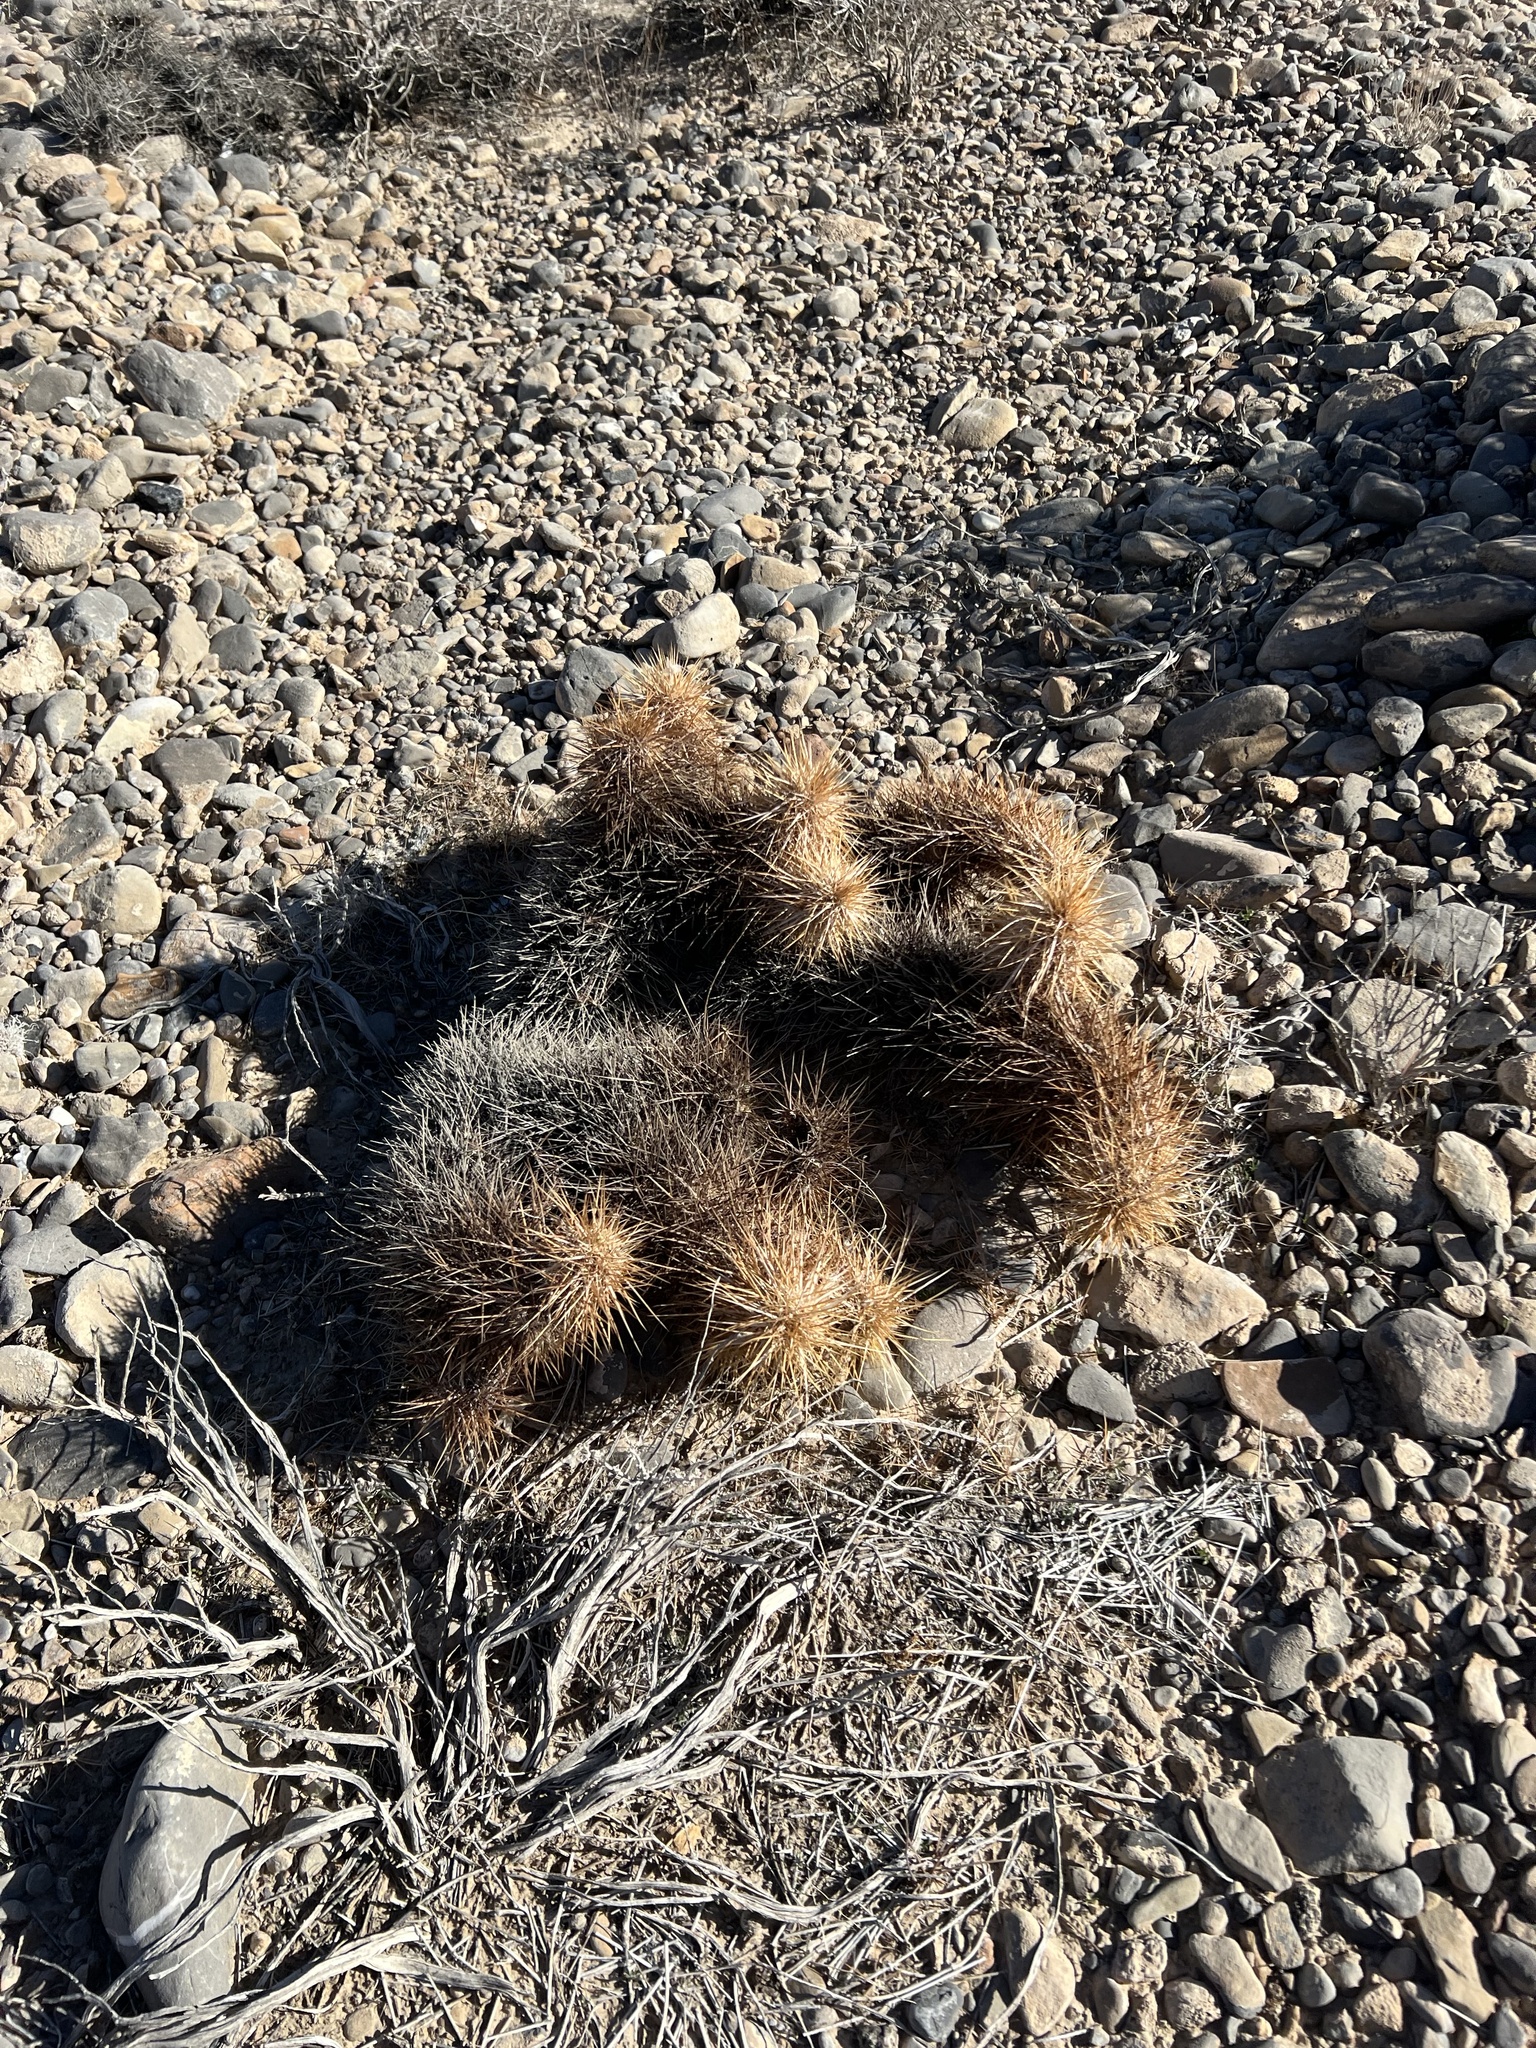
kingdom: Plantae
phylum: Tracheophyta
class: Magnoliopsida
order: Caryophyllales
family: Cactaceae
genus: Echinocereus
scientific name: Echinocereus engelmannii
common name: Engelmann's hedgehog cactus
